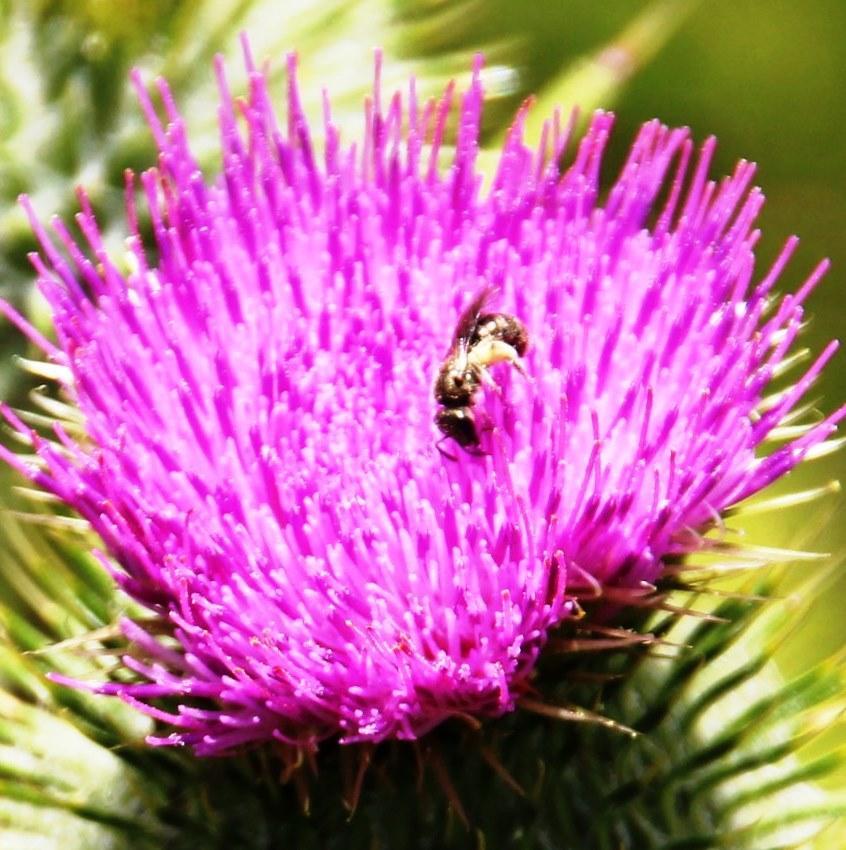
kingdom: Animalia
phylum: Arthropoda
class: Insecta
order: Hymenoptera
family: Halictidae
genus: Dialictus
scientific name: Dialictus
